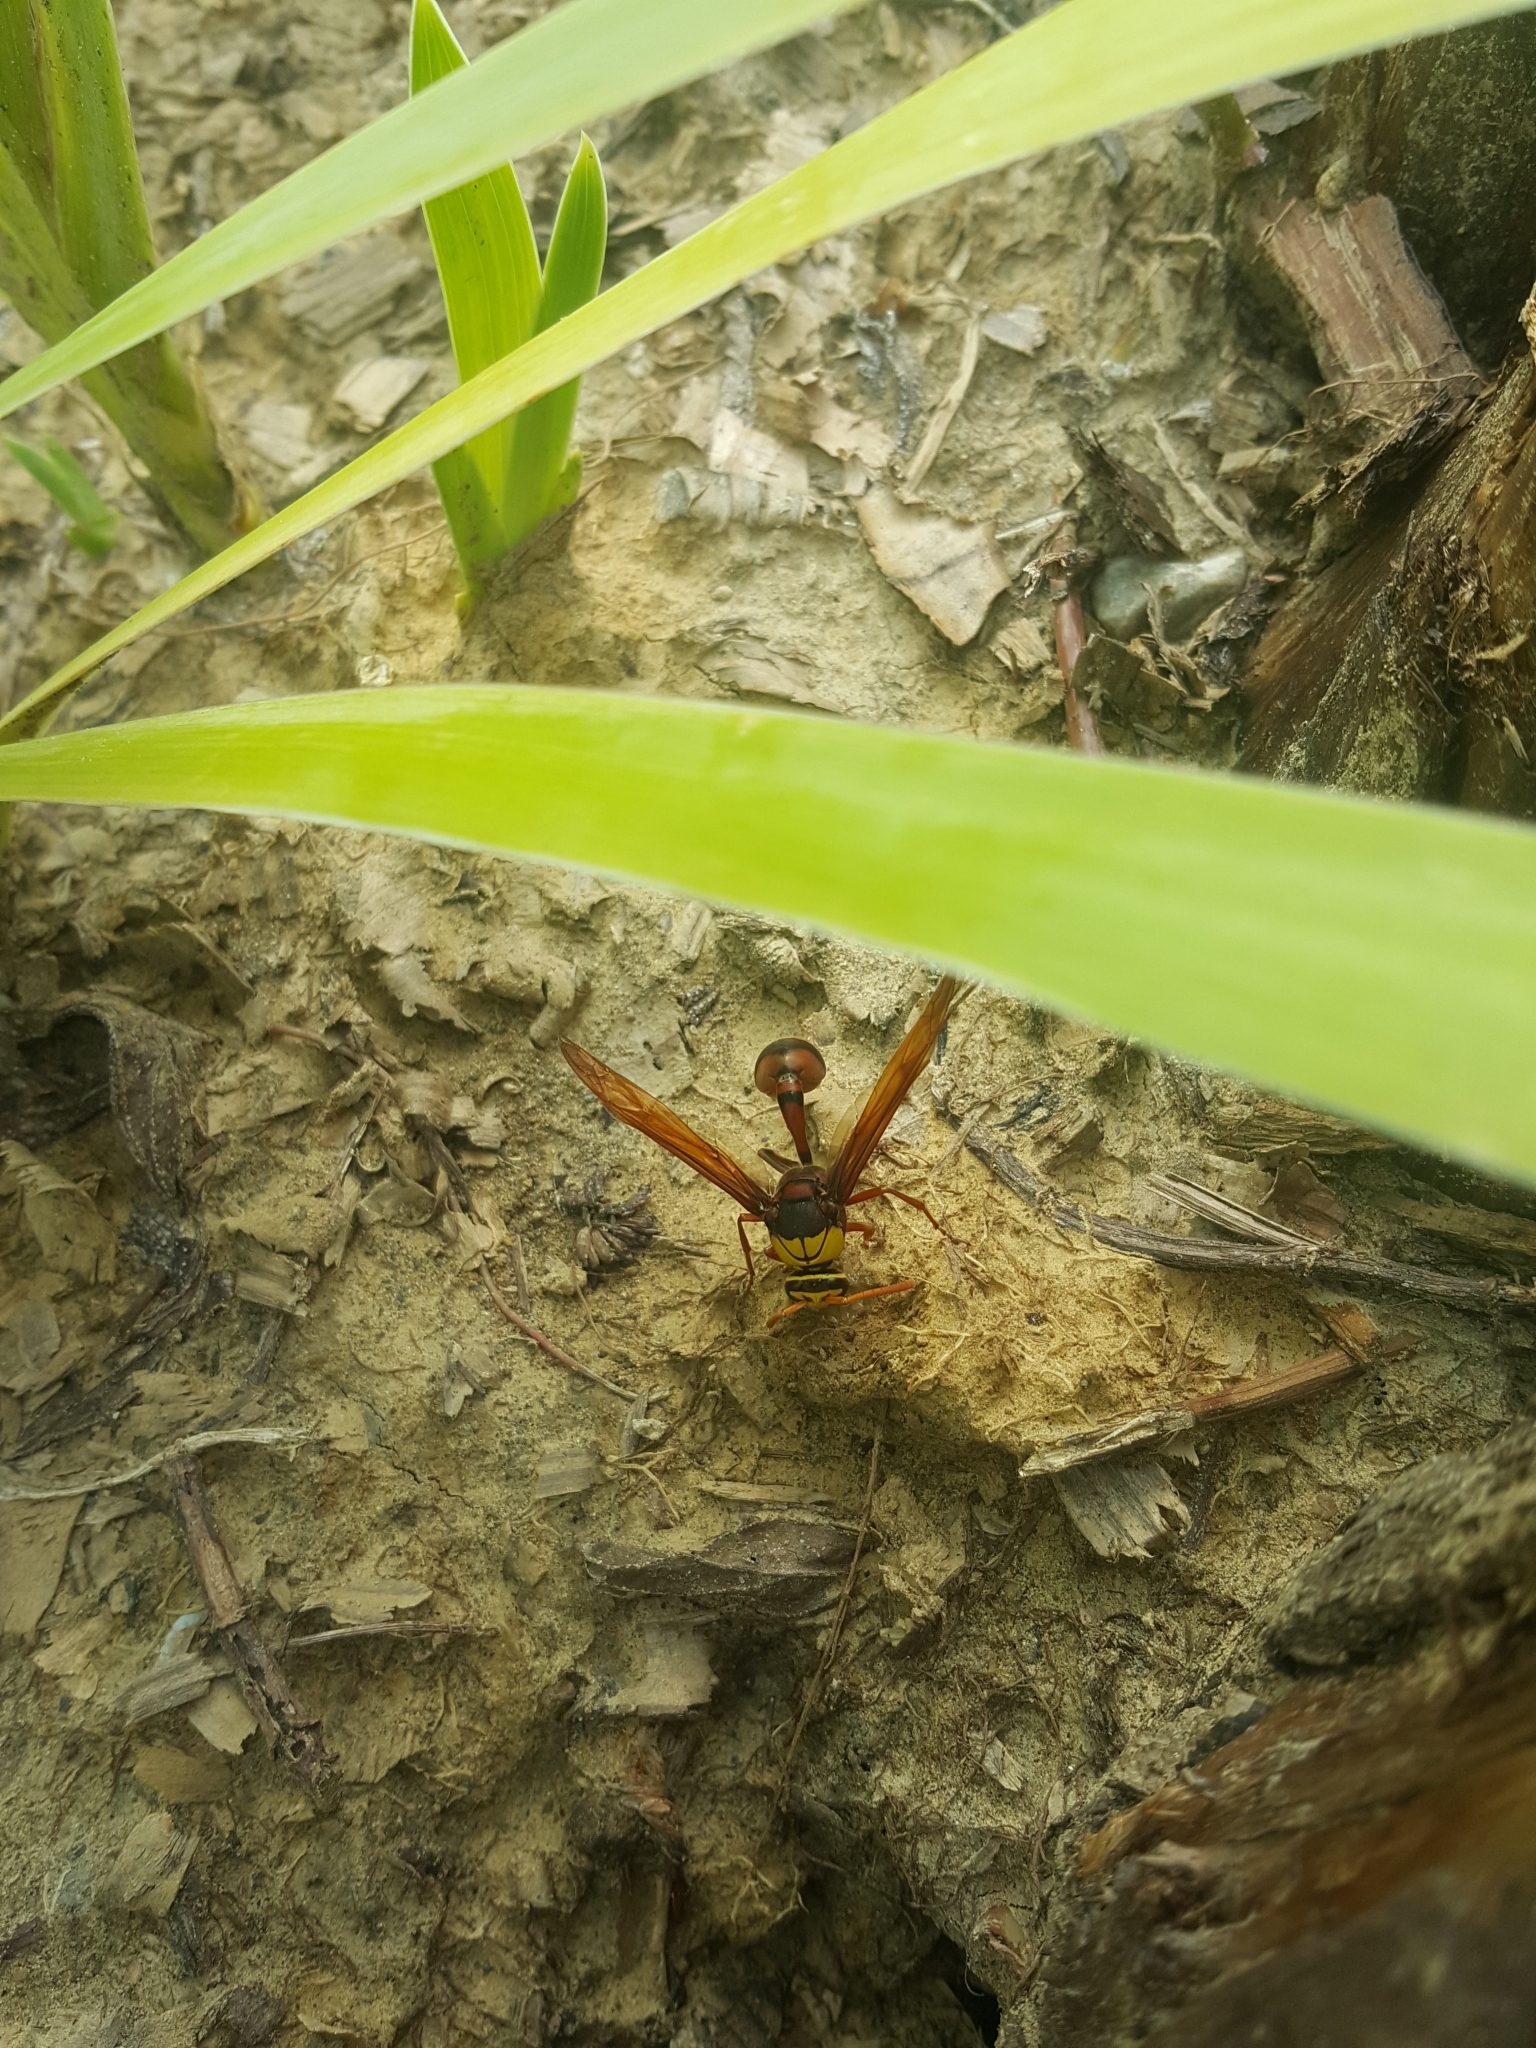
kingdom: Animalia
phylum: Arthropoda
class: Insecta
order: Hymenoptera
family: Eumenidae
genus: Delta
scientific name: Delta pyriforme
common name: Wasp
